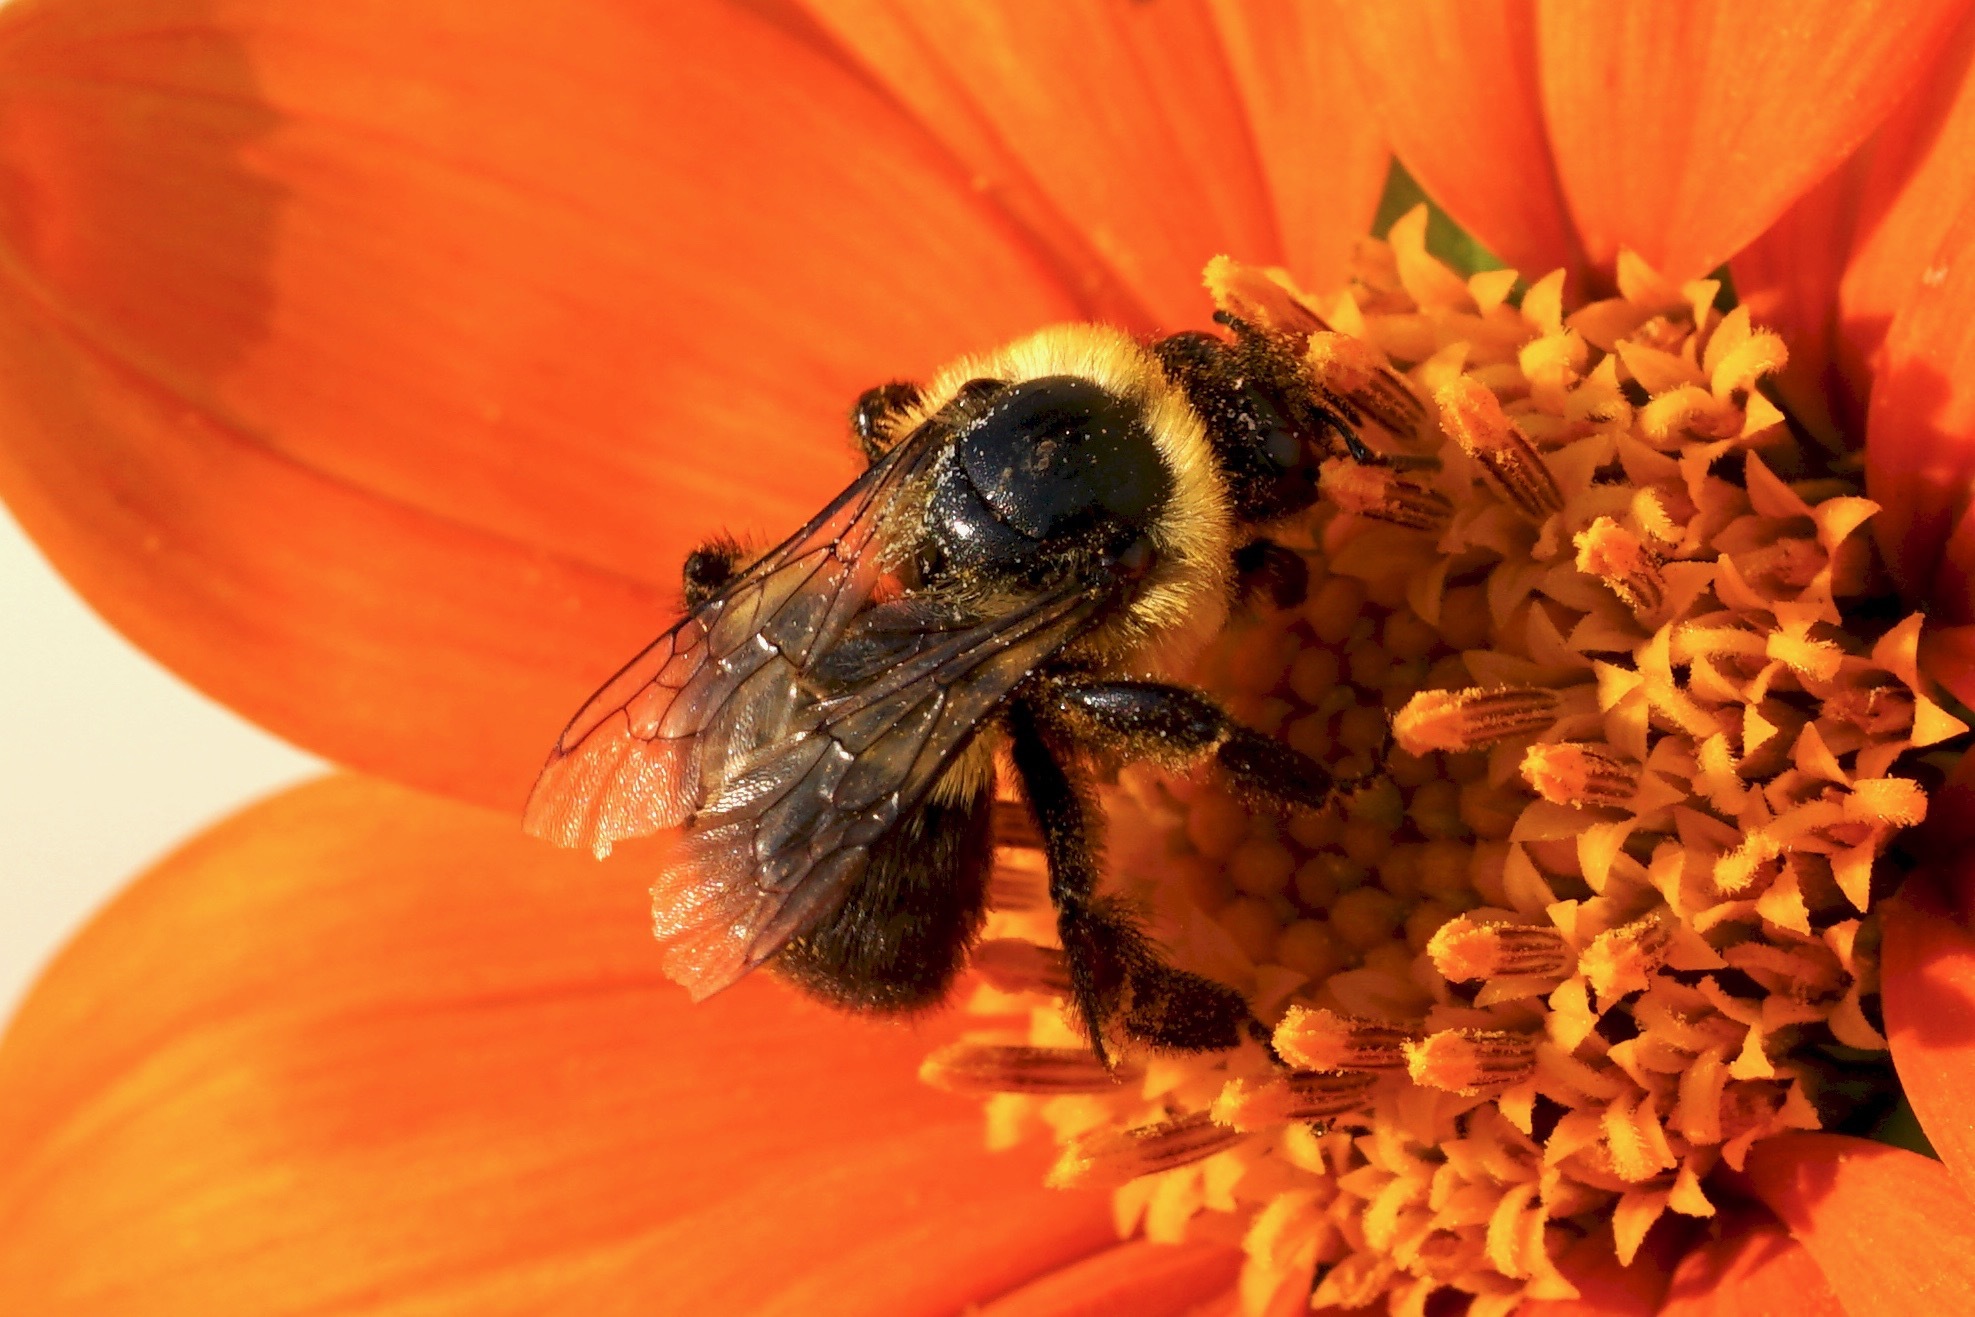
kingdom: Animalia
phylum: Arthropoda
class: Insecta
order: Hymenoptera
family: Apidae
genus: Bombus
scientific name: Bombus impatiens
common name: Common eastern bumble bee
